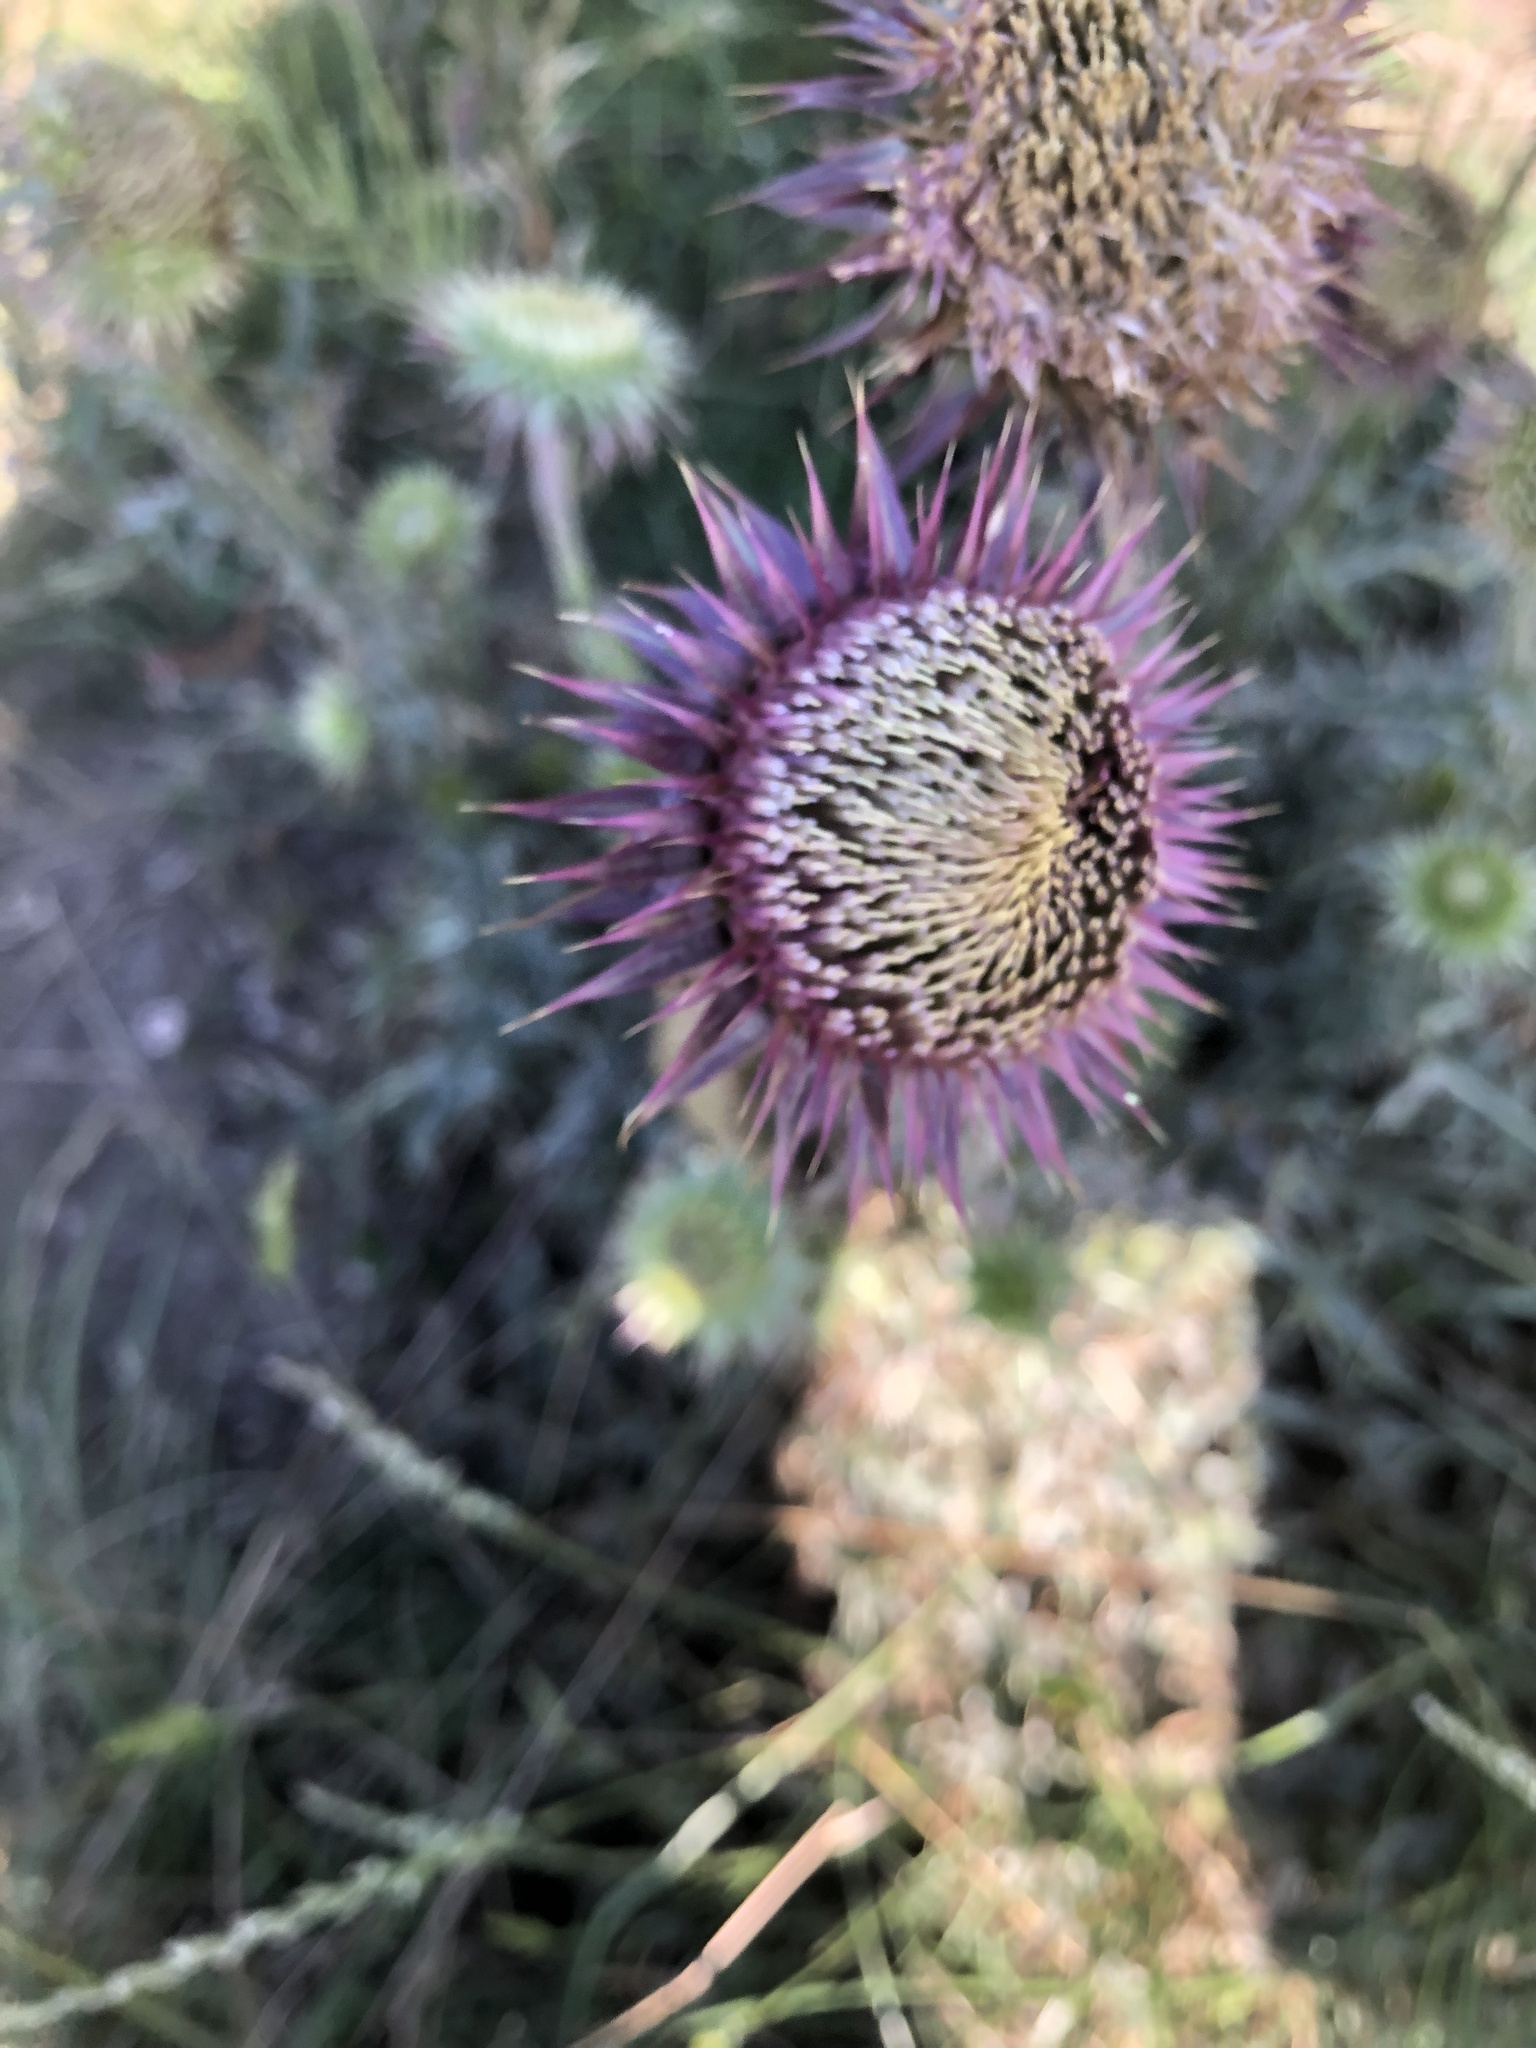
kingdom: Plantae
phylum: Tracheophyta
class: Magnoliopsida
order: Asterales
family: Asteraceae
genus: Carduus
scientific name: Carduus nutans
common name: Musk thistle
